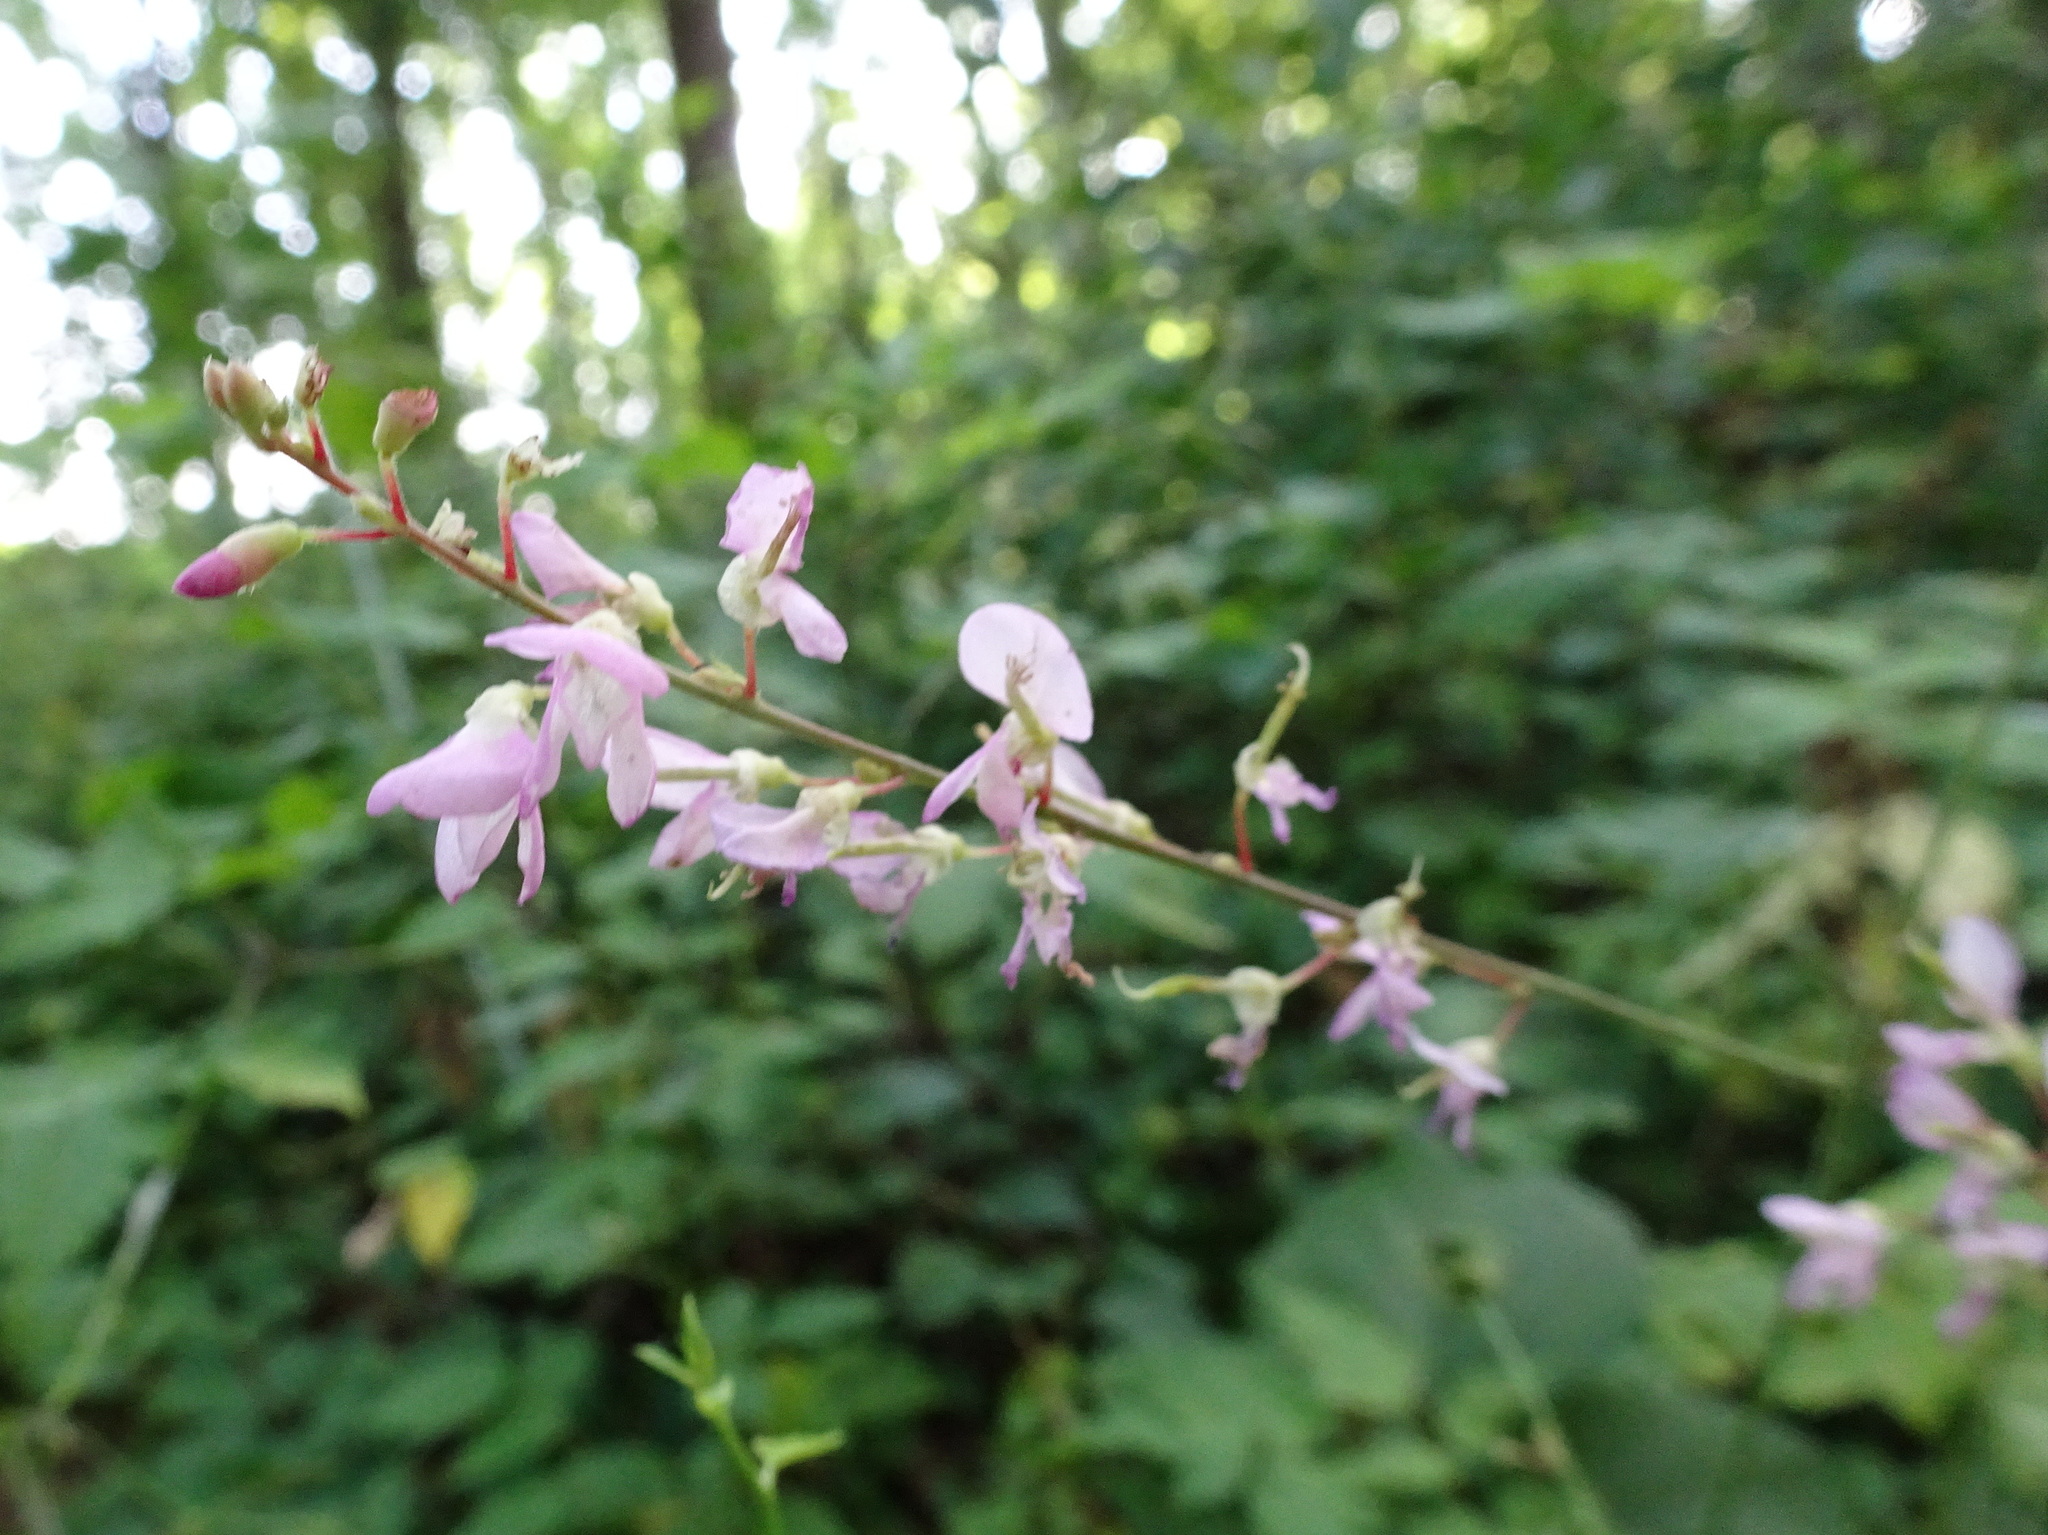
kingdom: Plantae
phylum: Tracheophyta
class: Magnoliopsida
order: Fabales
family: Fabaceae
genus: Hylodesmum
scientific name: Hylodesmum glutinosum
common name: Clustered-leaved tick-trefoil
